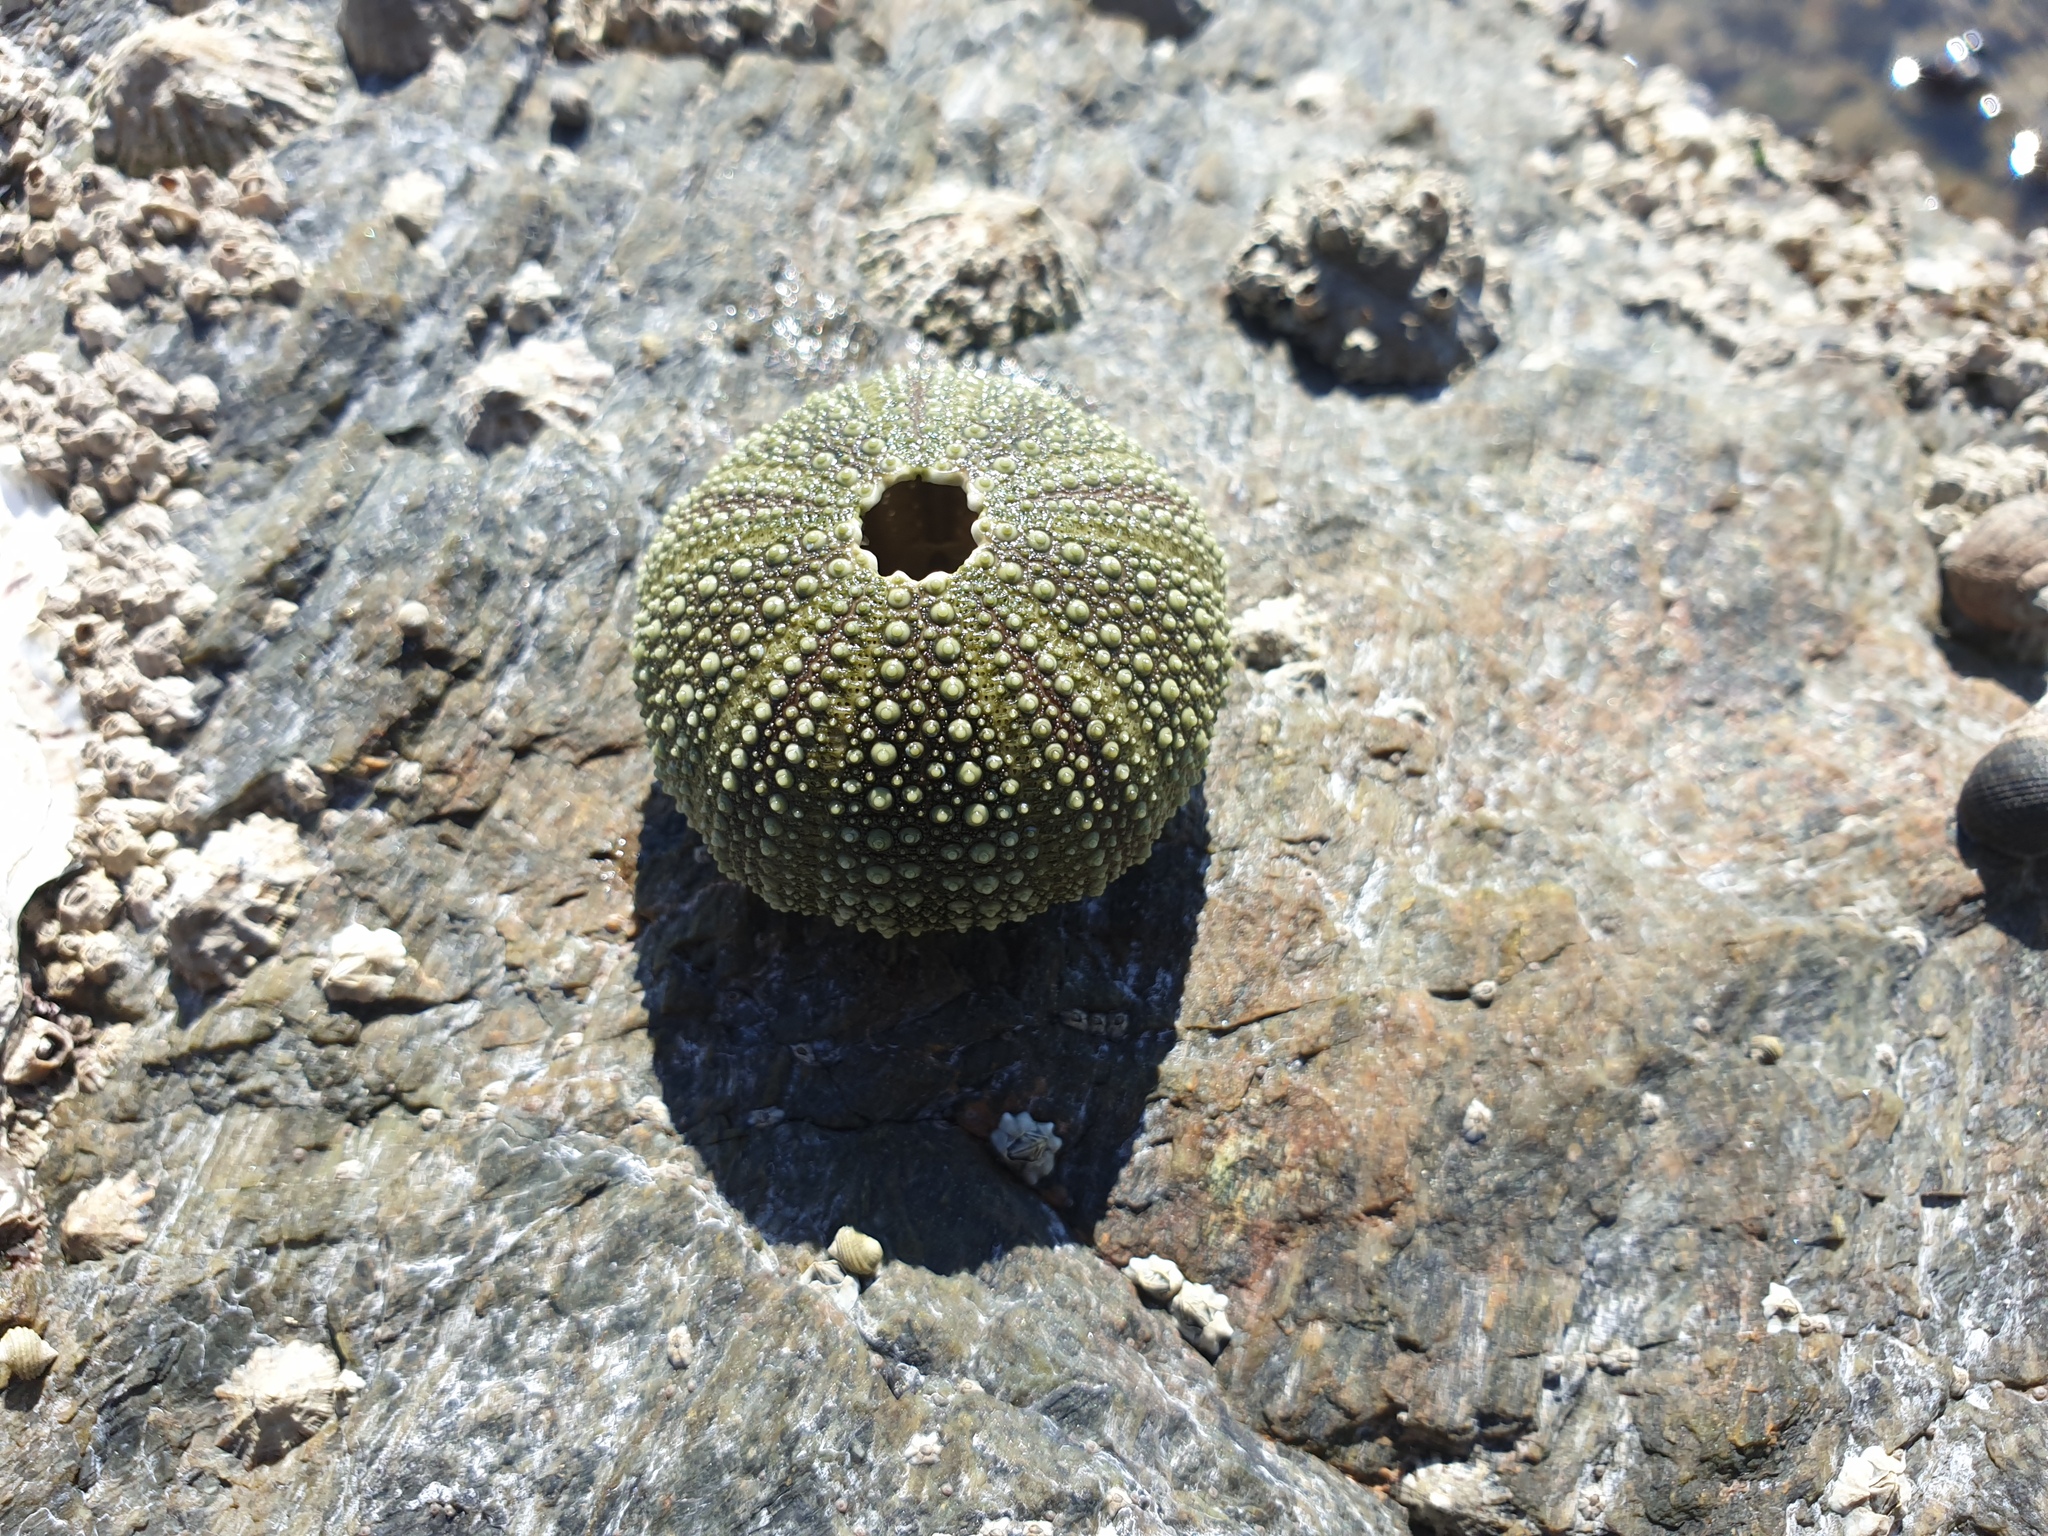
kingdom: Animalia
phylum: Echinodermata
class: Echinoidea
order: Camarodonta
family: Parechinidae
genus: Psammechinus
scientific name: Psammechinus miliaris
